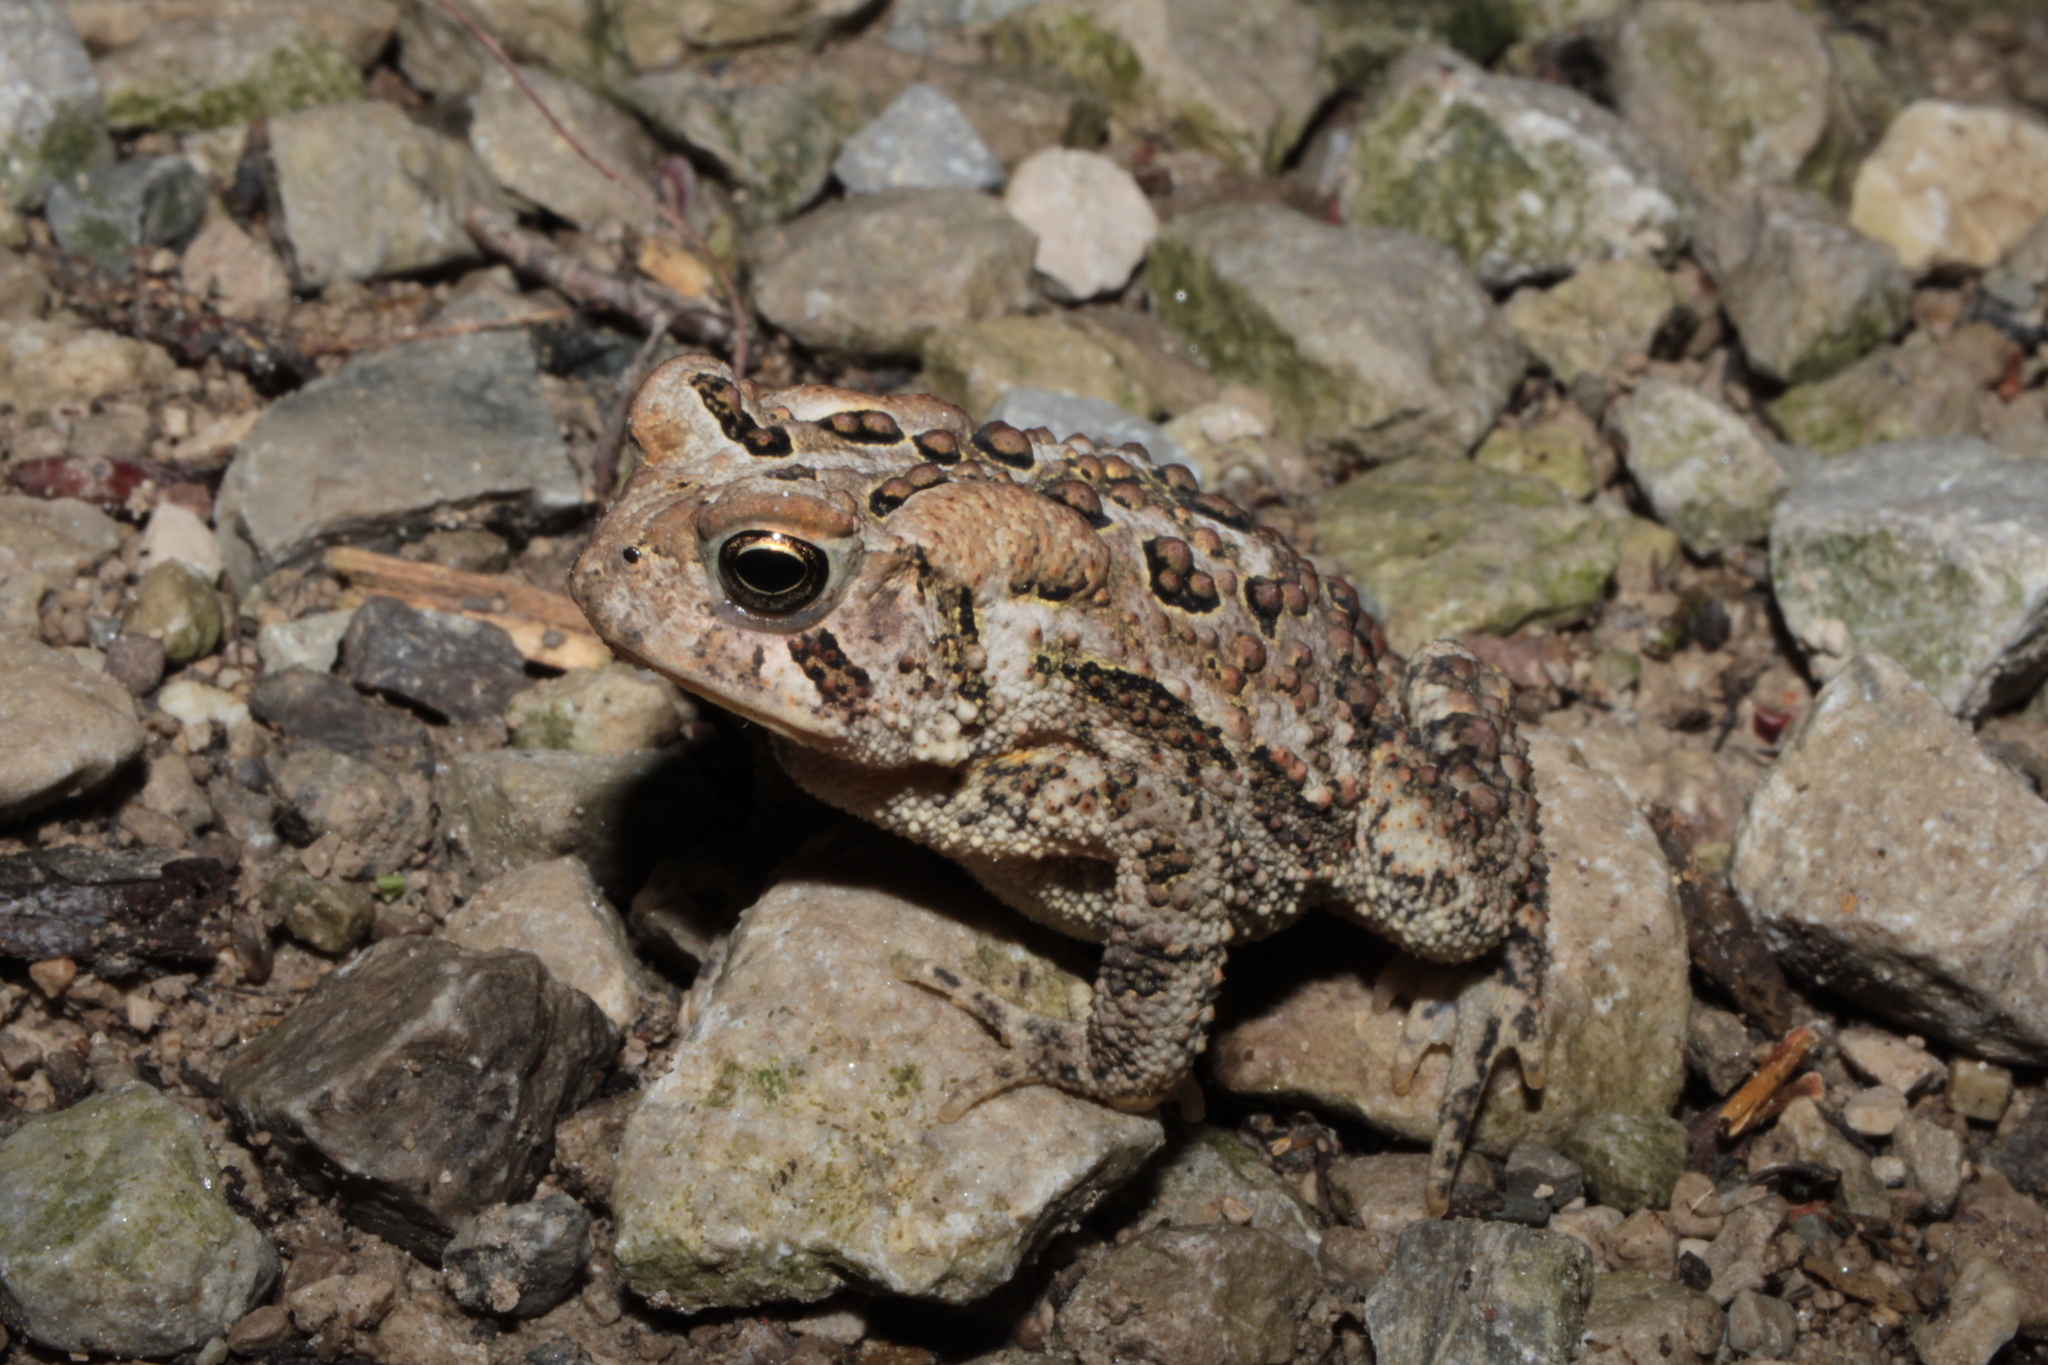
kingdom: Animalia
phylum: Chordata
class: Amphibia
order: Anura
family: Bufonidae
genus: Anaxyrus
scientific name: Anaxyrus americanus
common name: American toad
